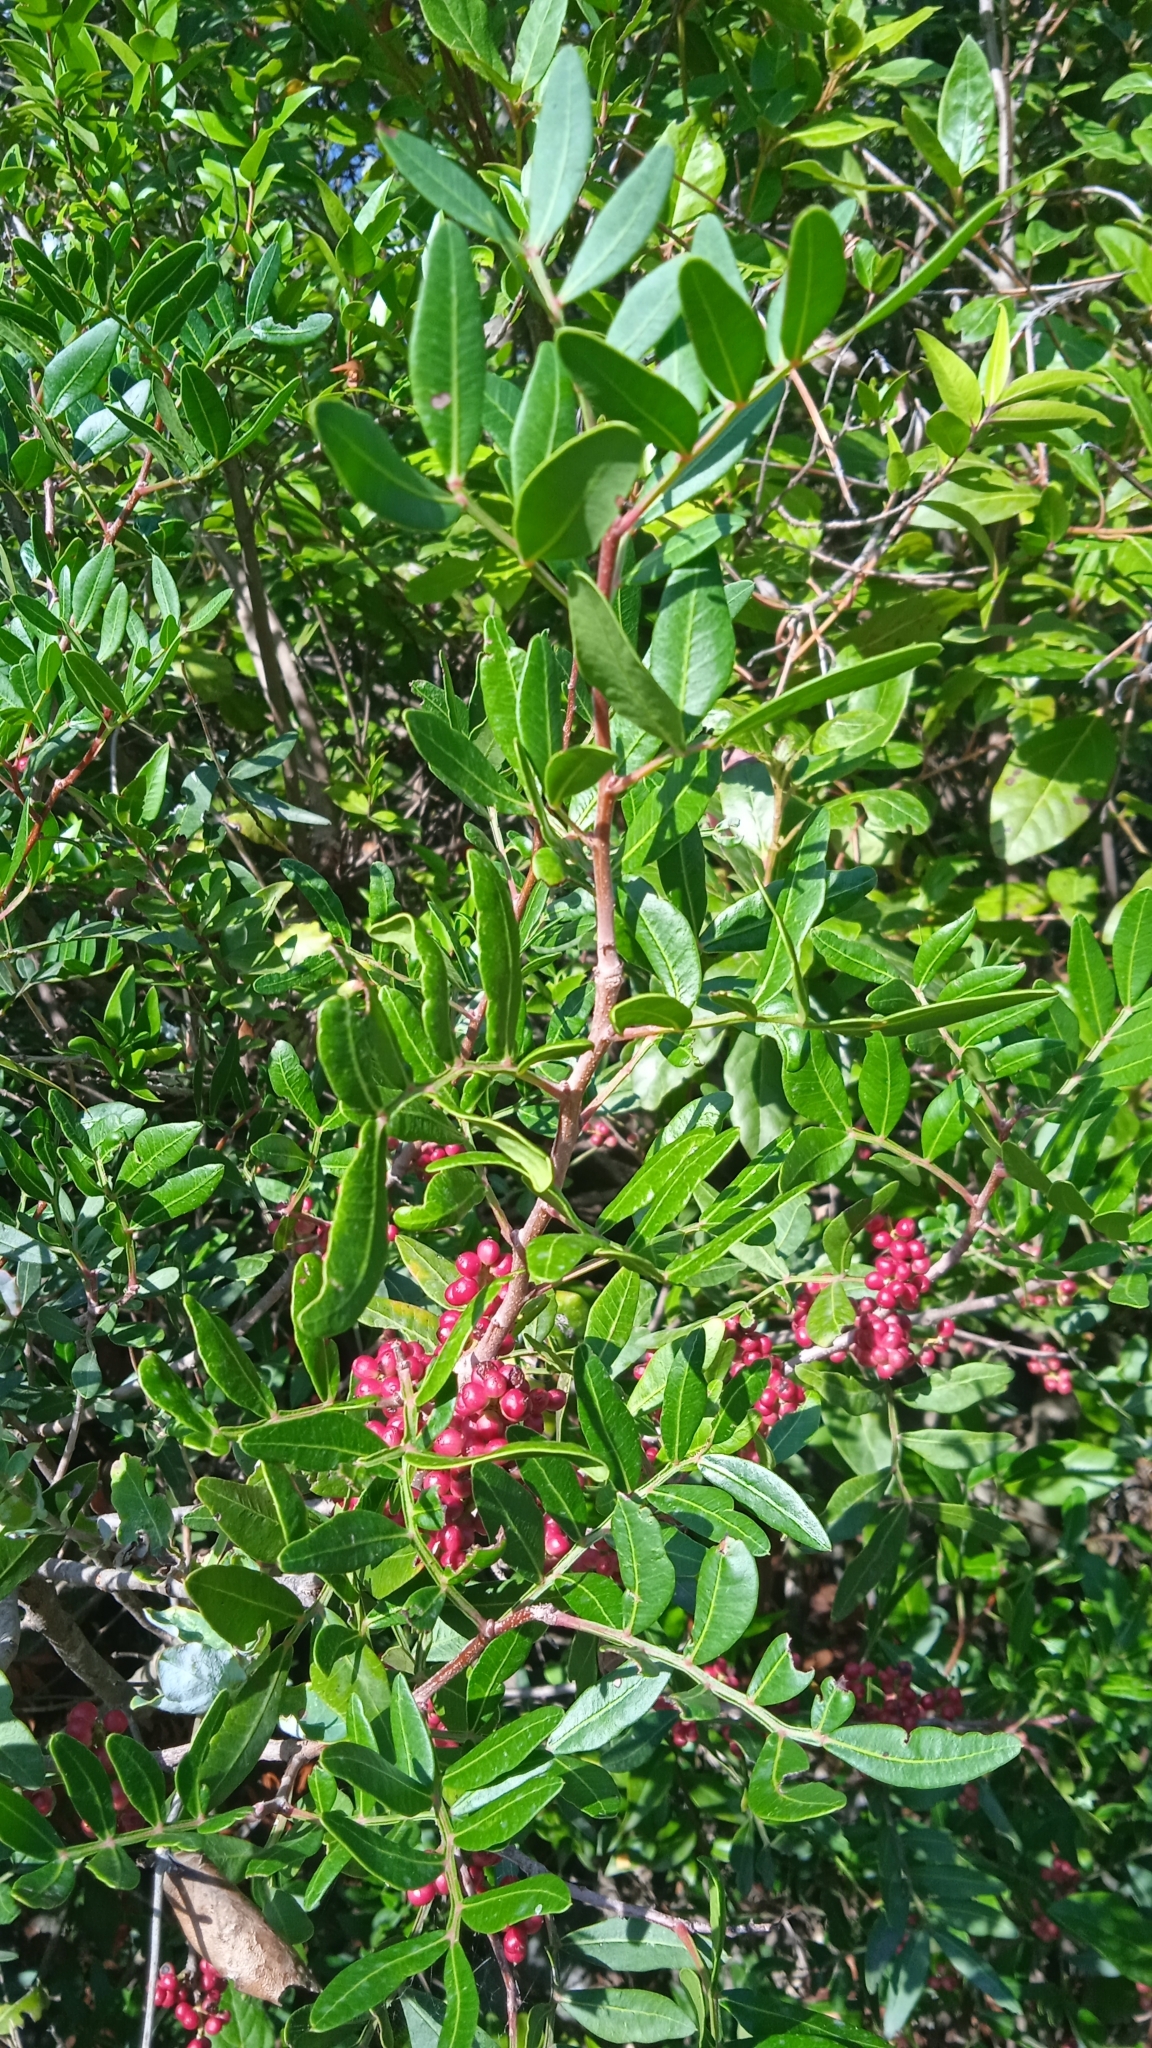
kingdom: Plantae
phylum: Tracheophyta
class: Magnoliopsida
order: Sapindales
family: Anacardiaceae
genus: Pistacia
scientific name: Pistacia lentiscus
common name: Lentisk
